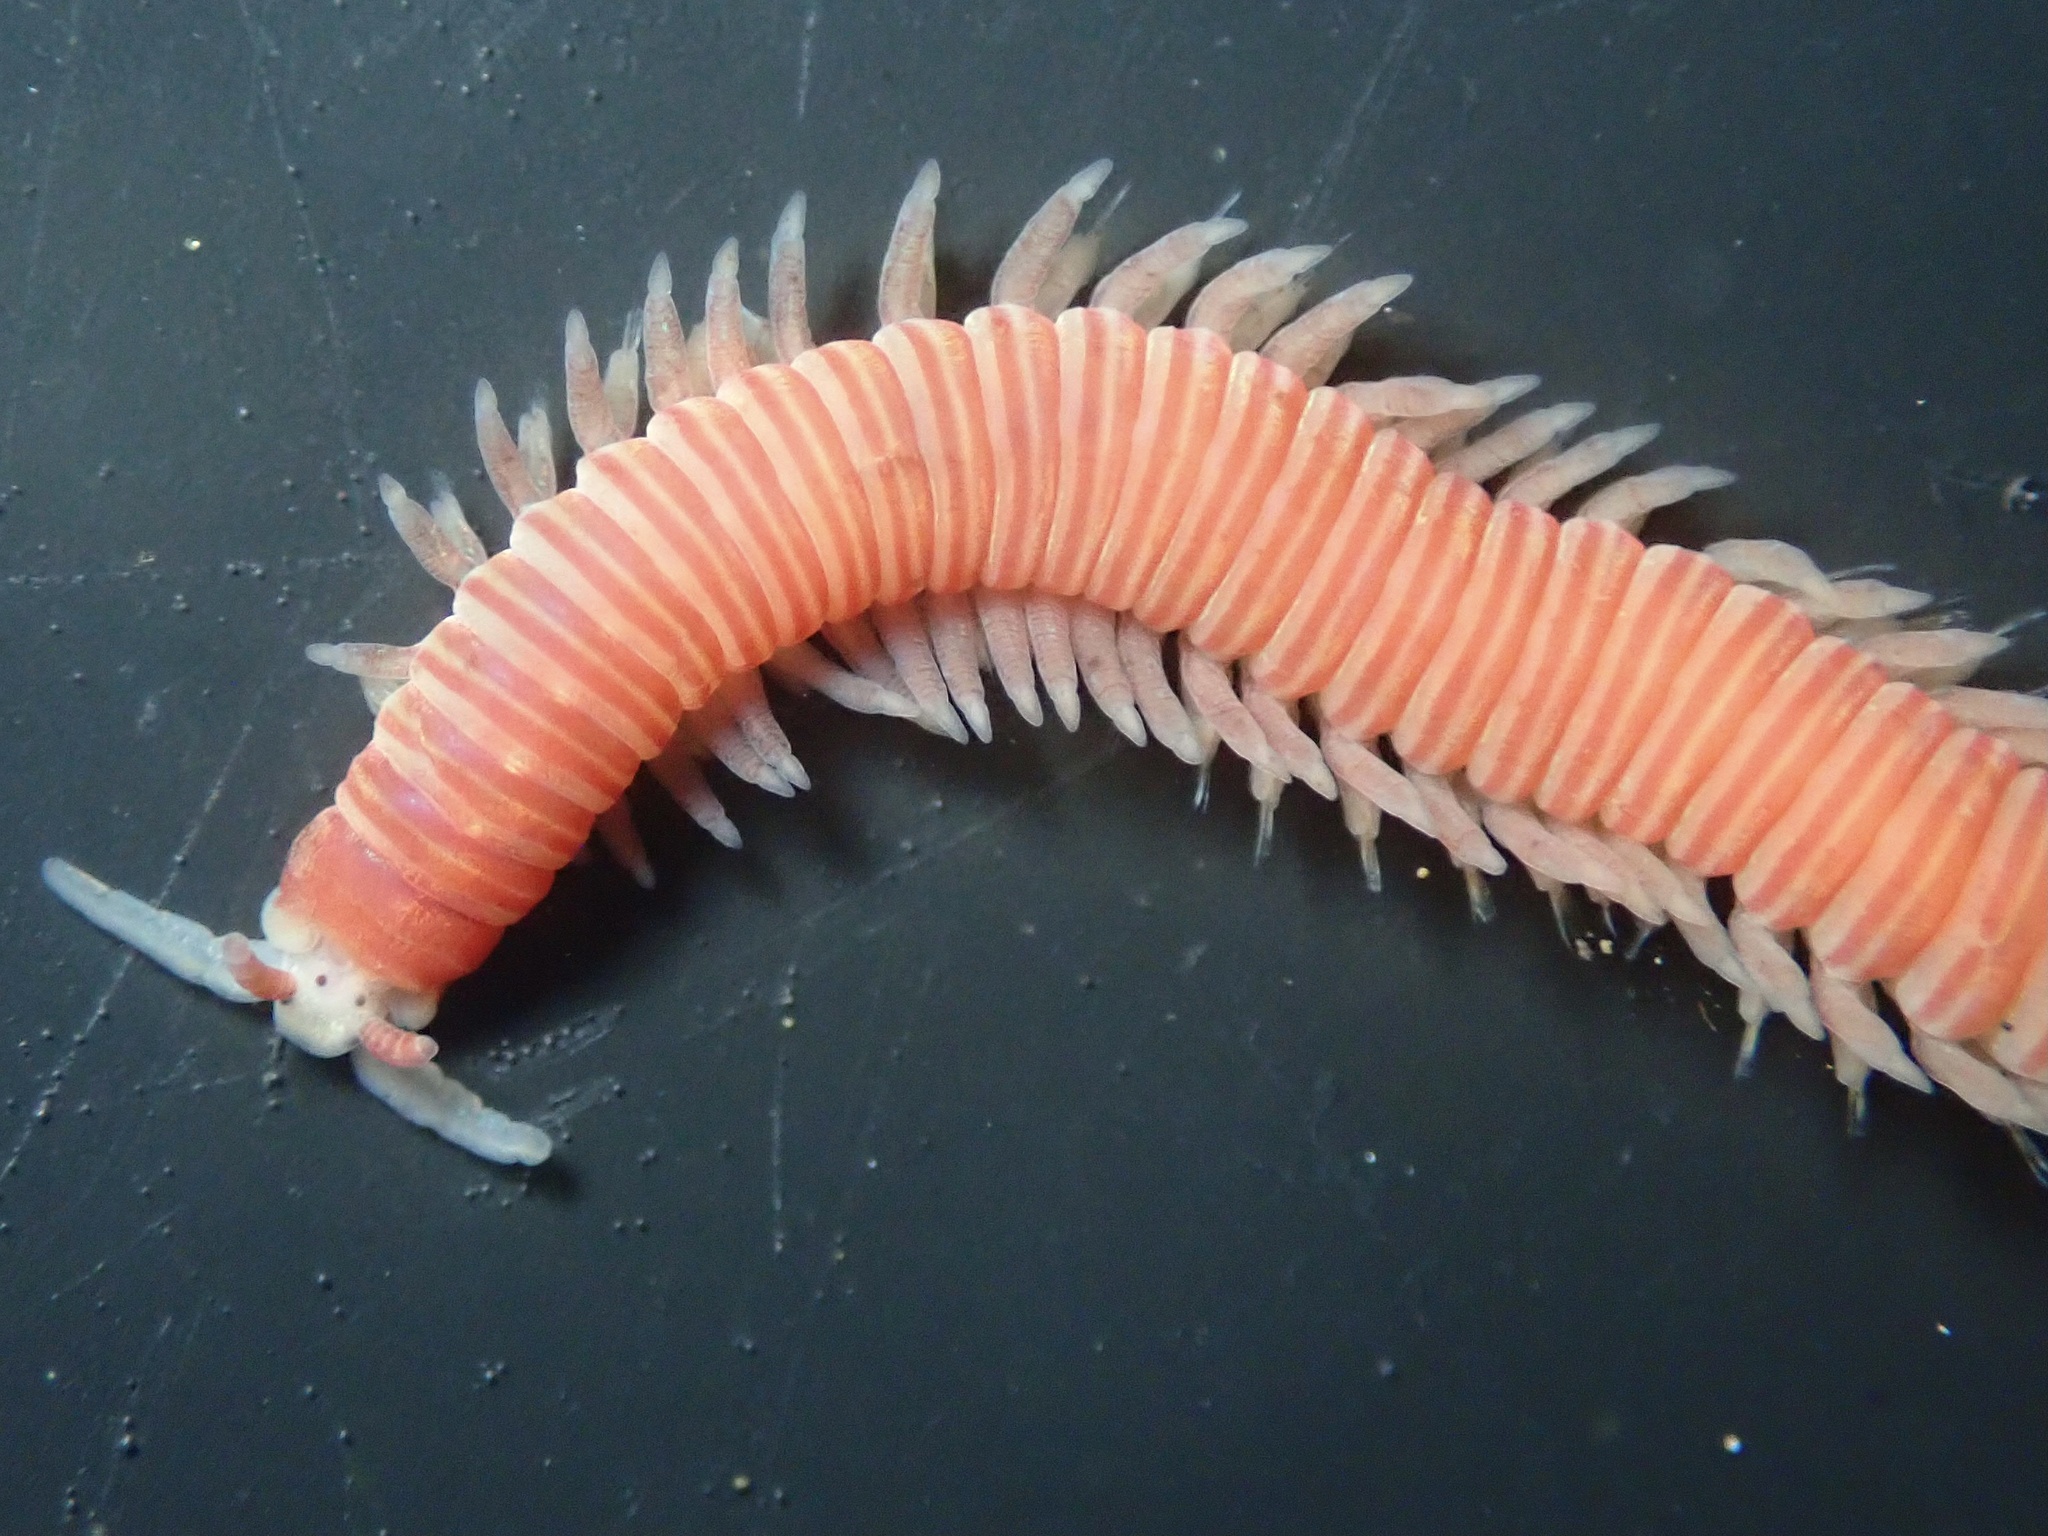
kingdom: Animalia
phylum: Annelida
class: Polychaeta
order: Eunicida
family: Dorvilleidae
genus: Dorvillea
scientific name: Dorvillea moniloceras
